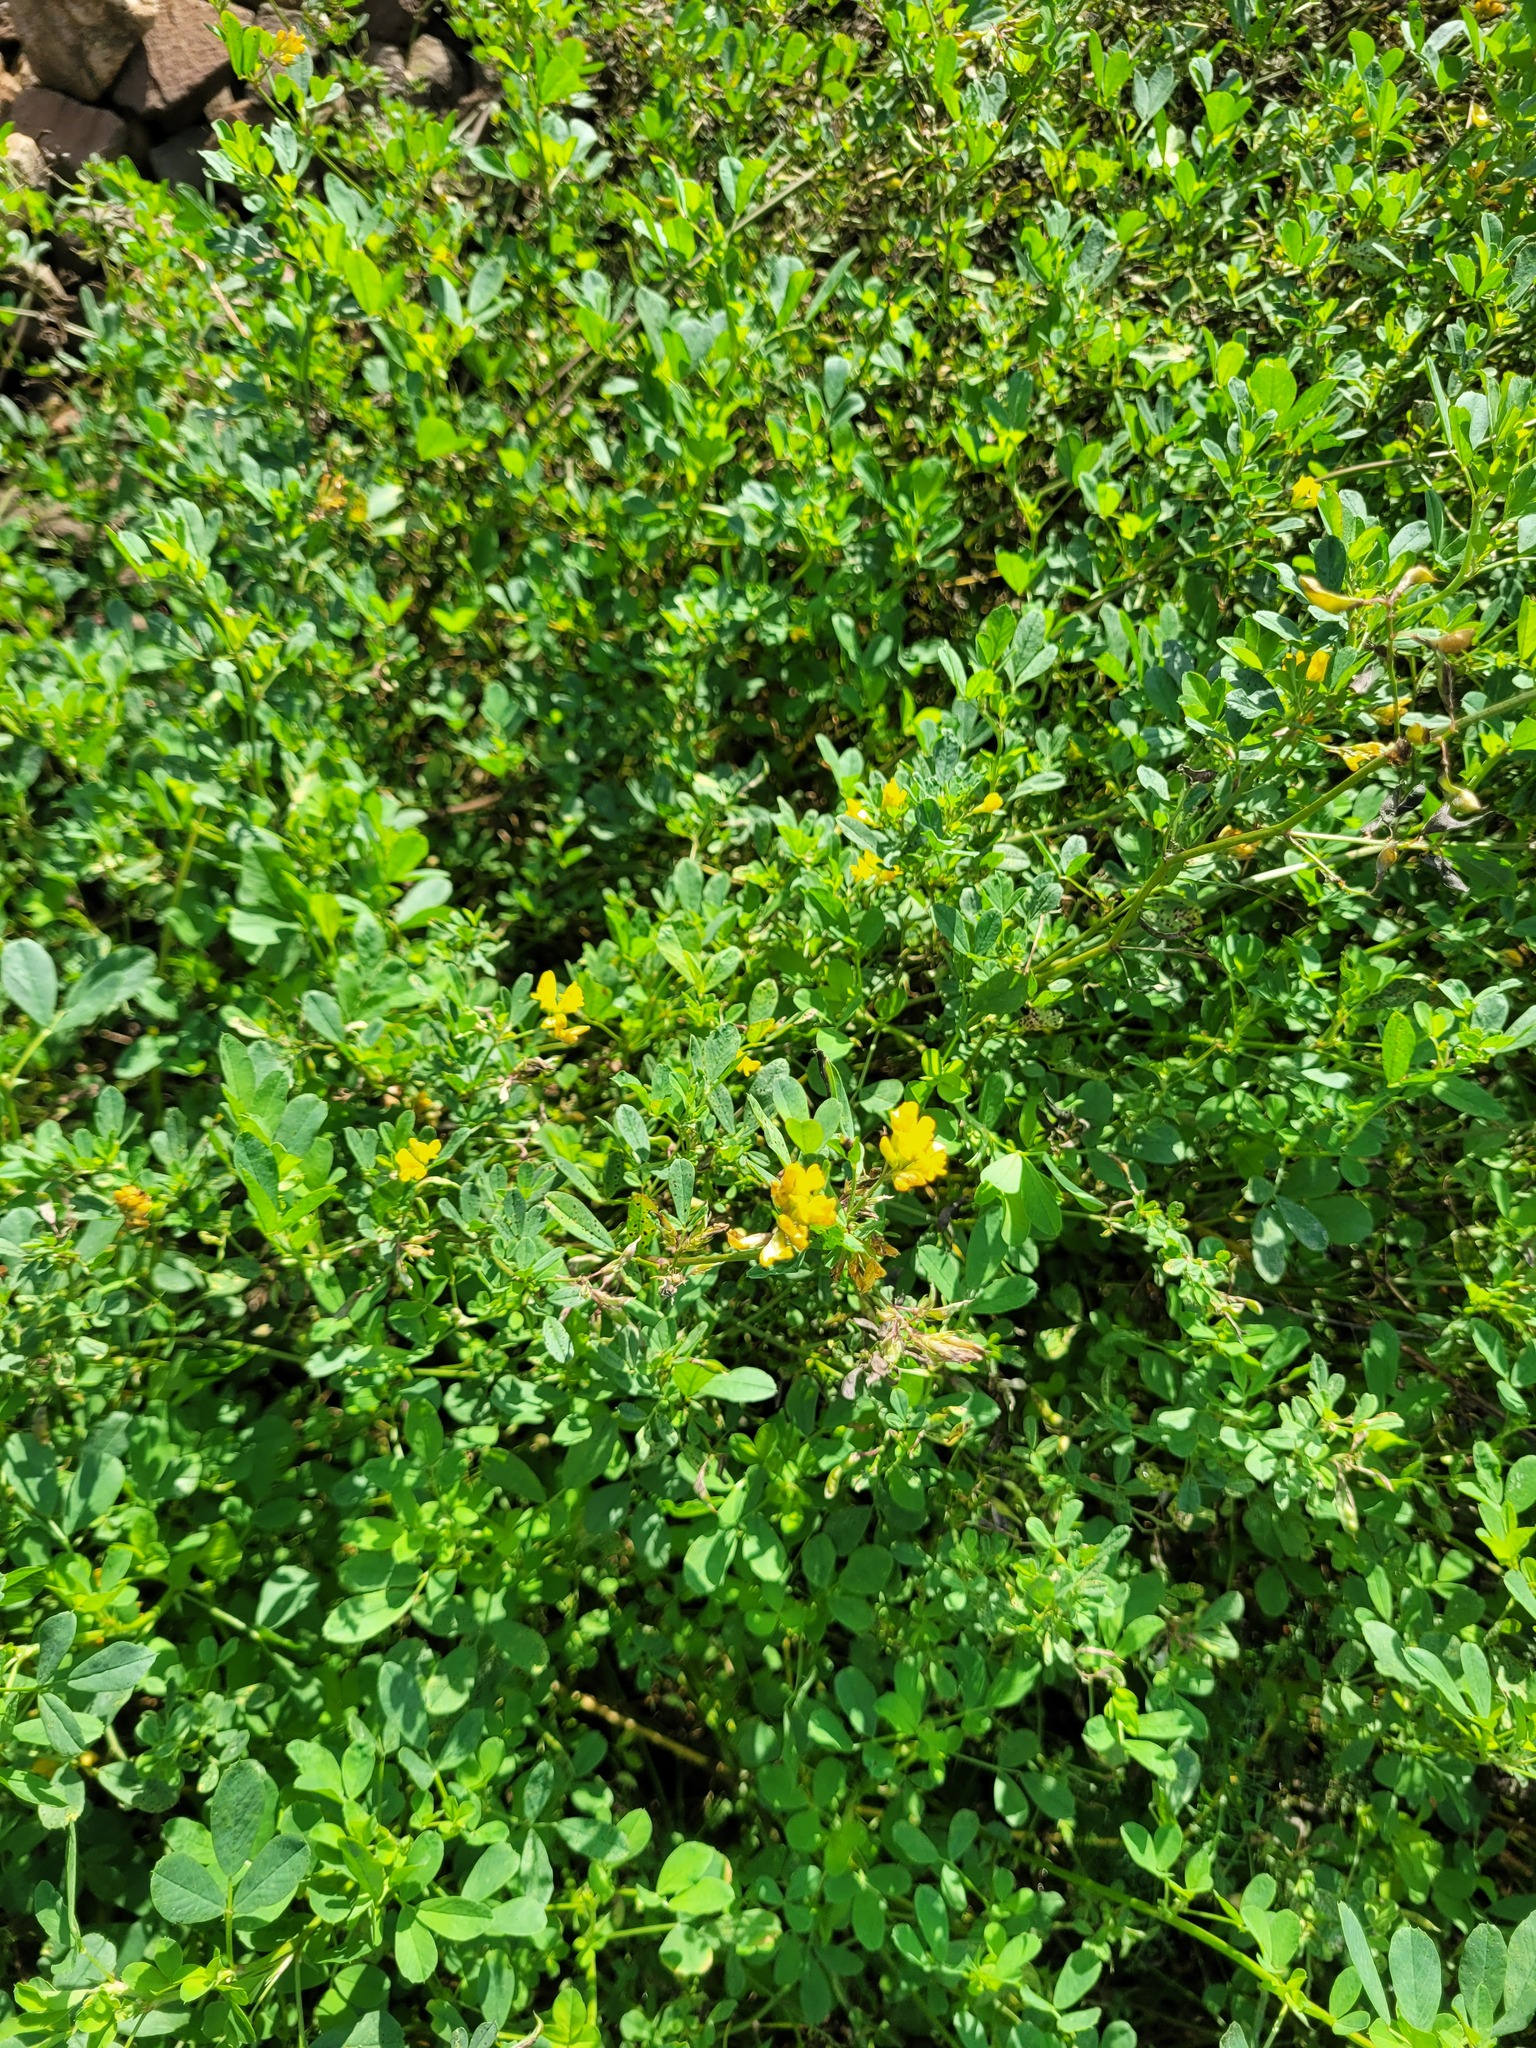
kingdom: Plantae
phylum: Tracheophyta
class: Magnoliopsida
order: Fabales
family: Fabaceae
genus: Medicago
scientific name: Medicago falcata
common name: Sickle medick
